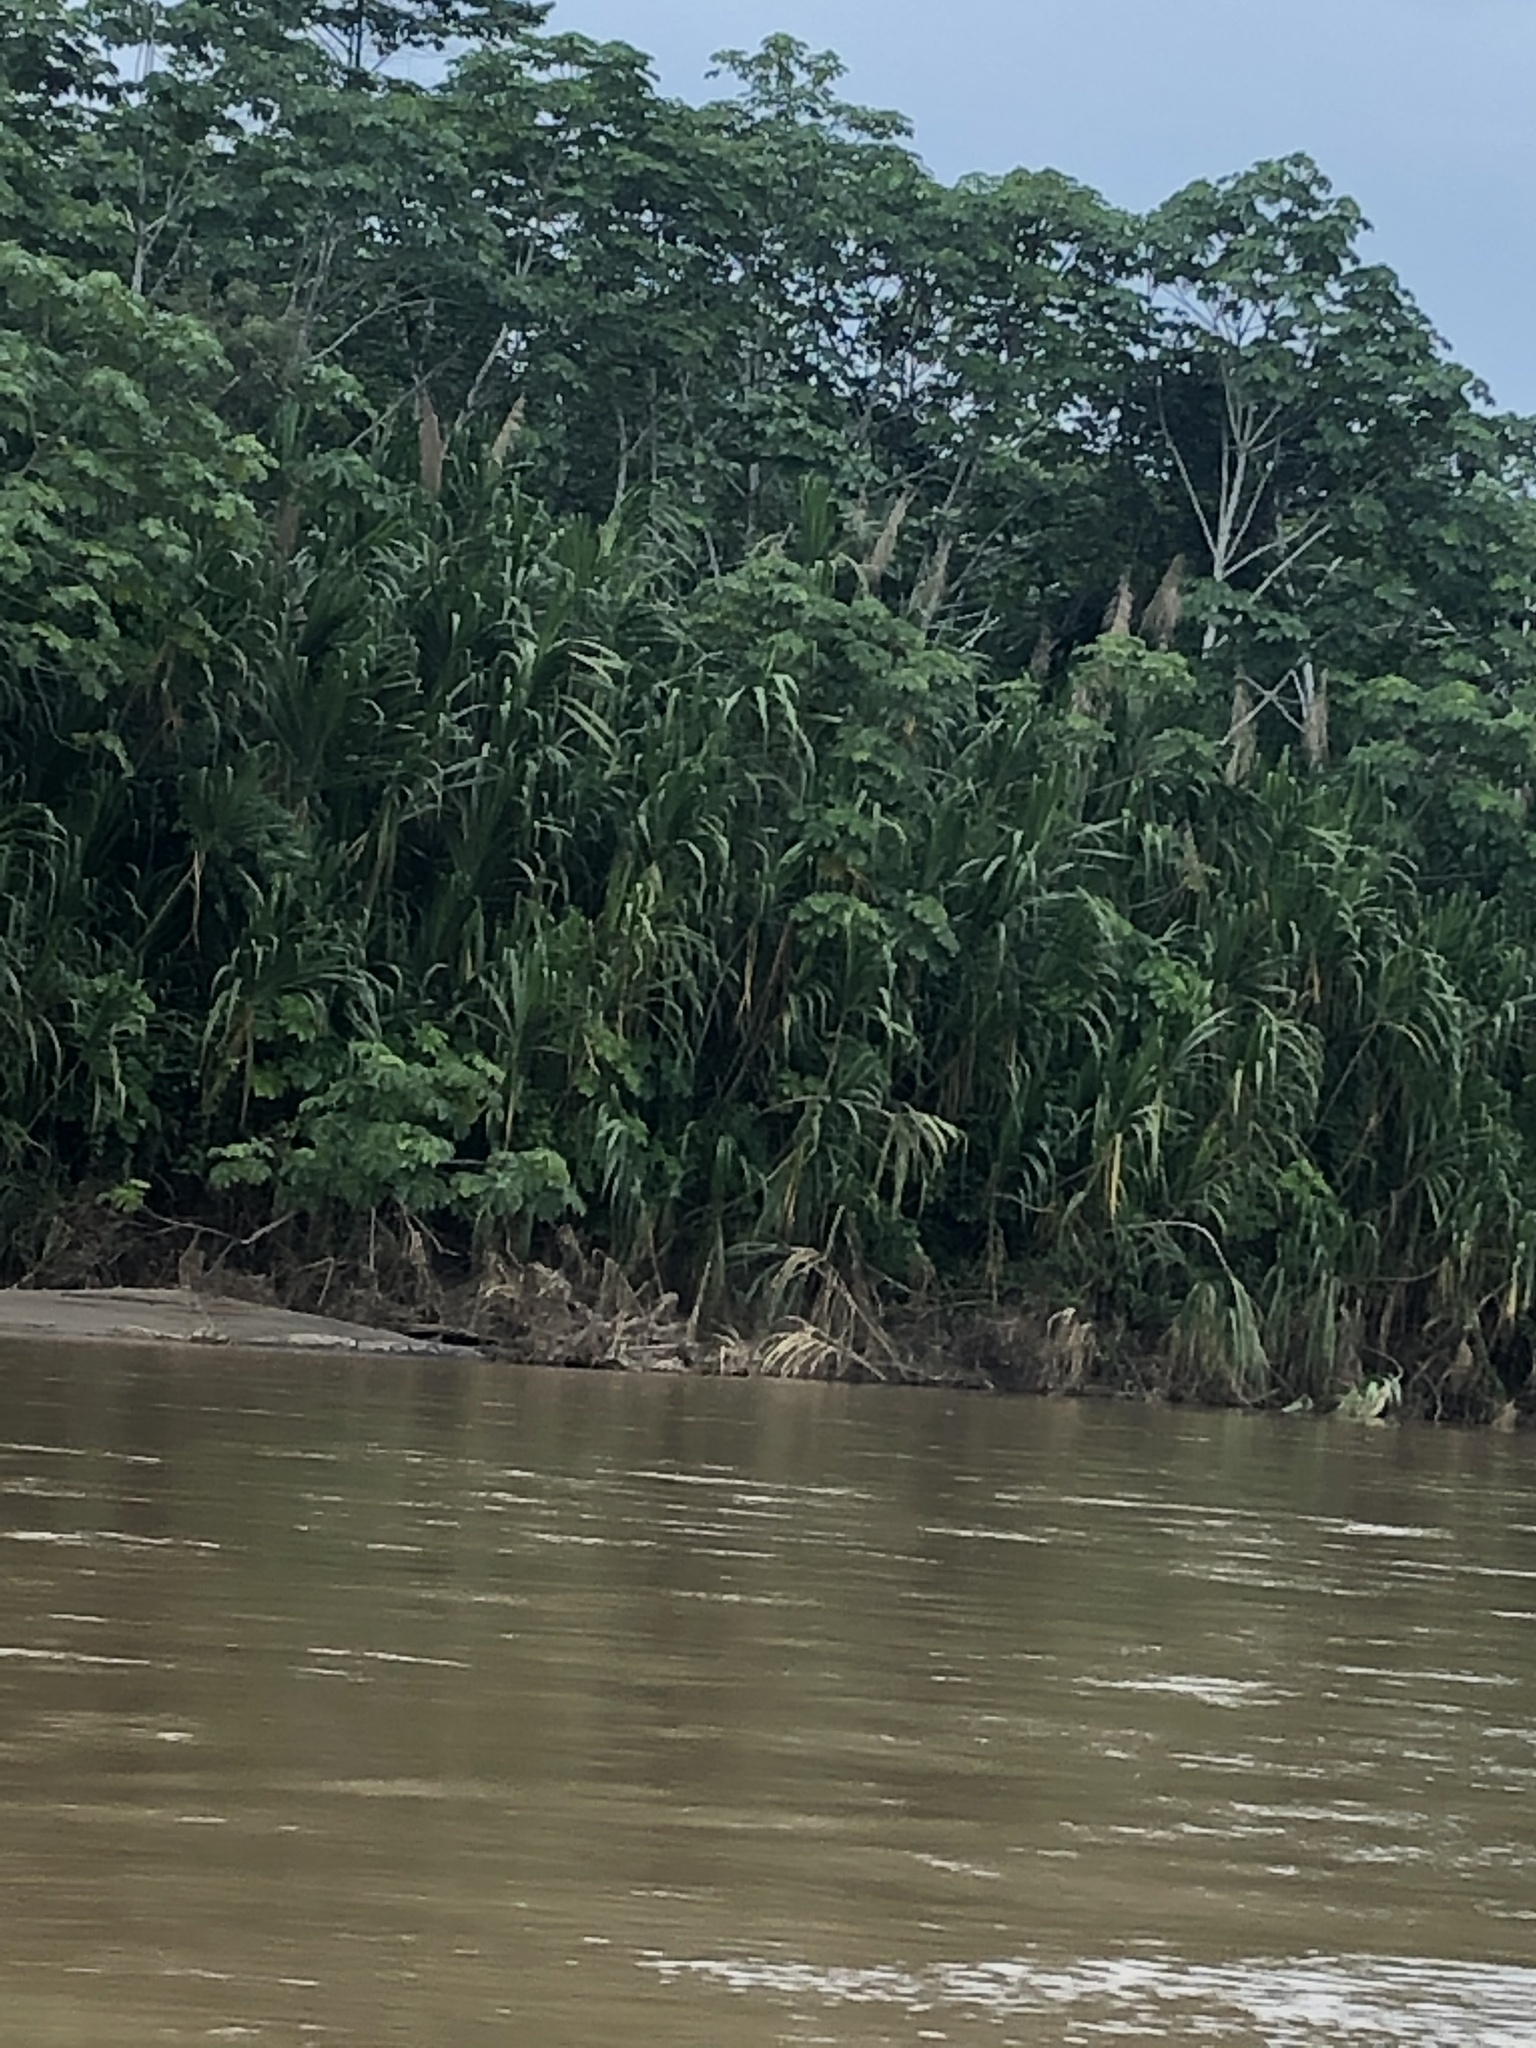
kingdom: Plantae
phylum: Tracheophyta
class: Liliopsida
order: Poales
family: Poaceae
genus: Gynerium
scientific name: Gynerium sagittatum
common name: Wild cane
